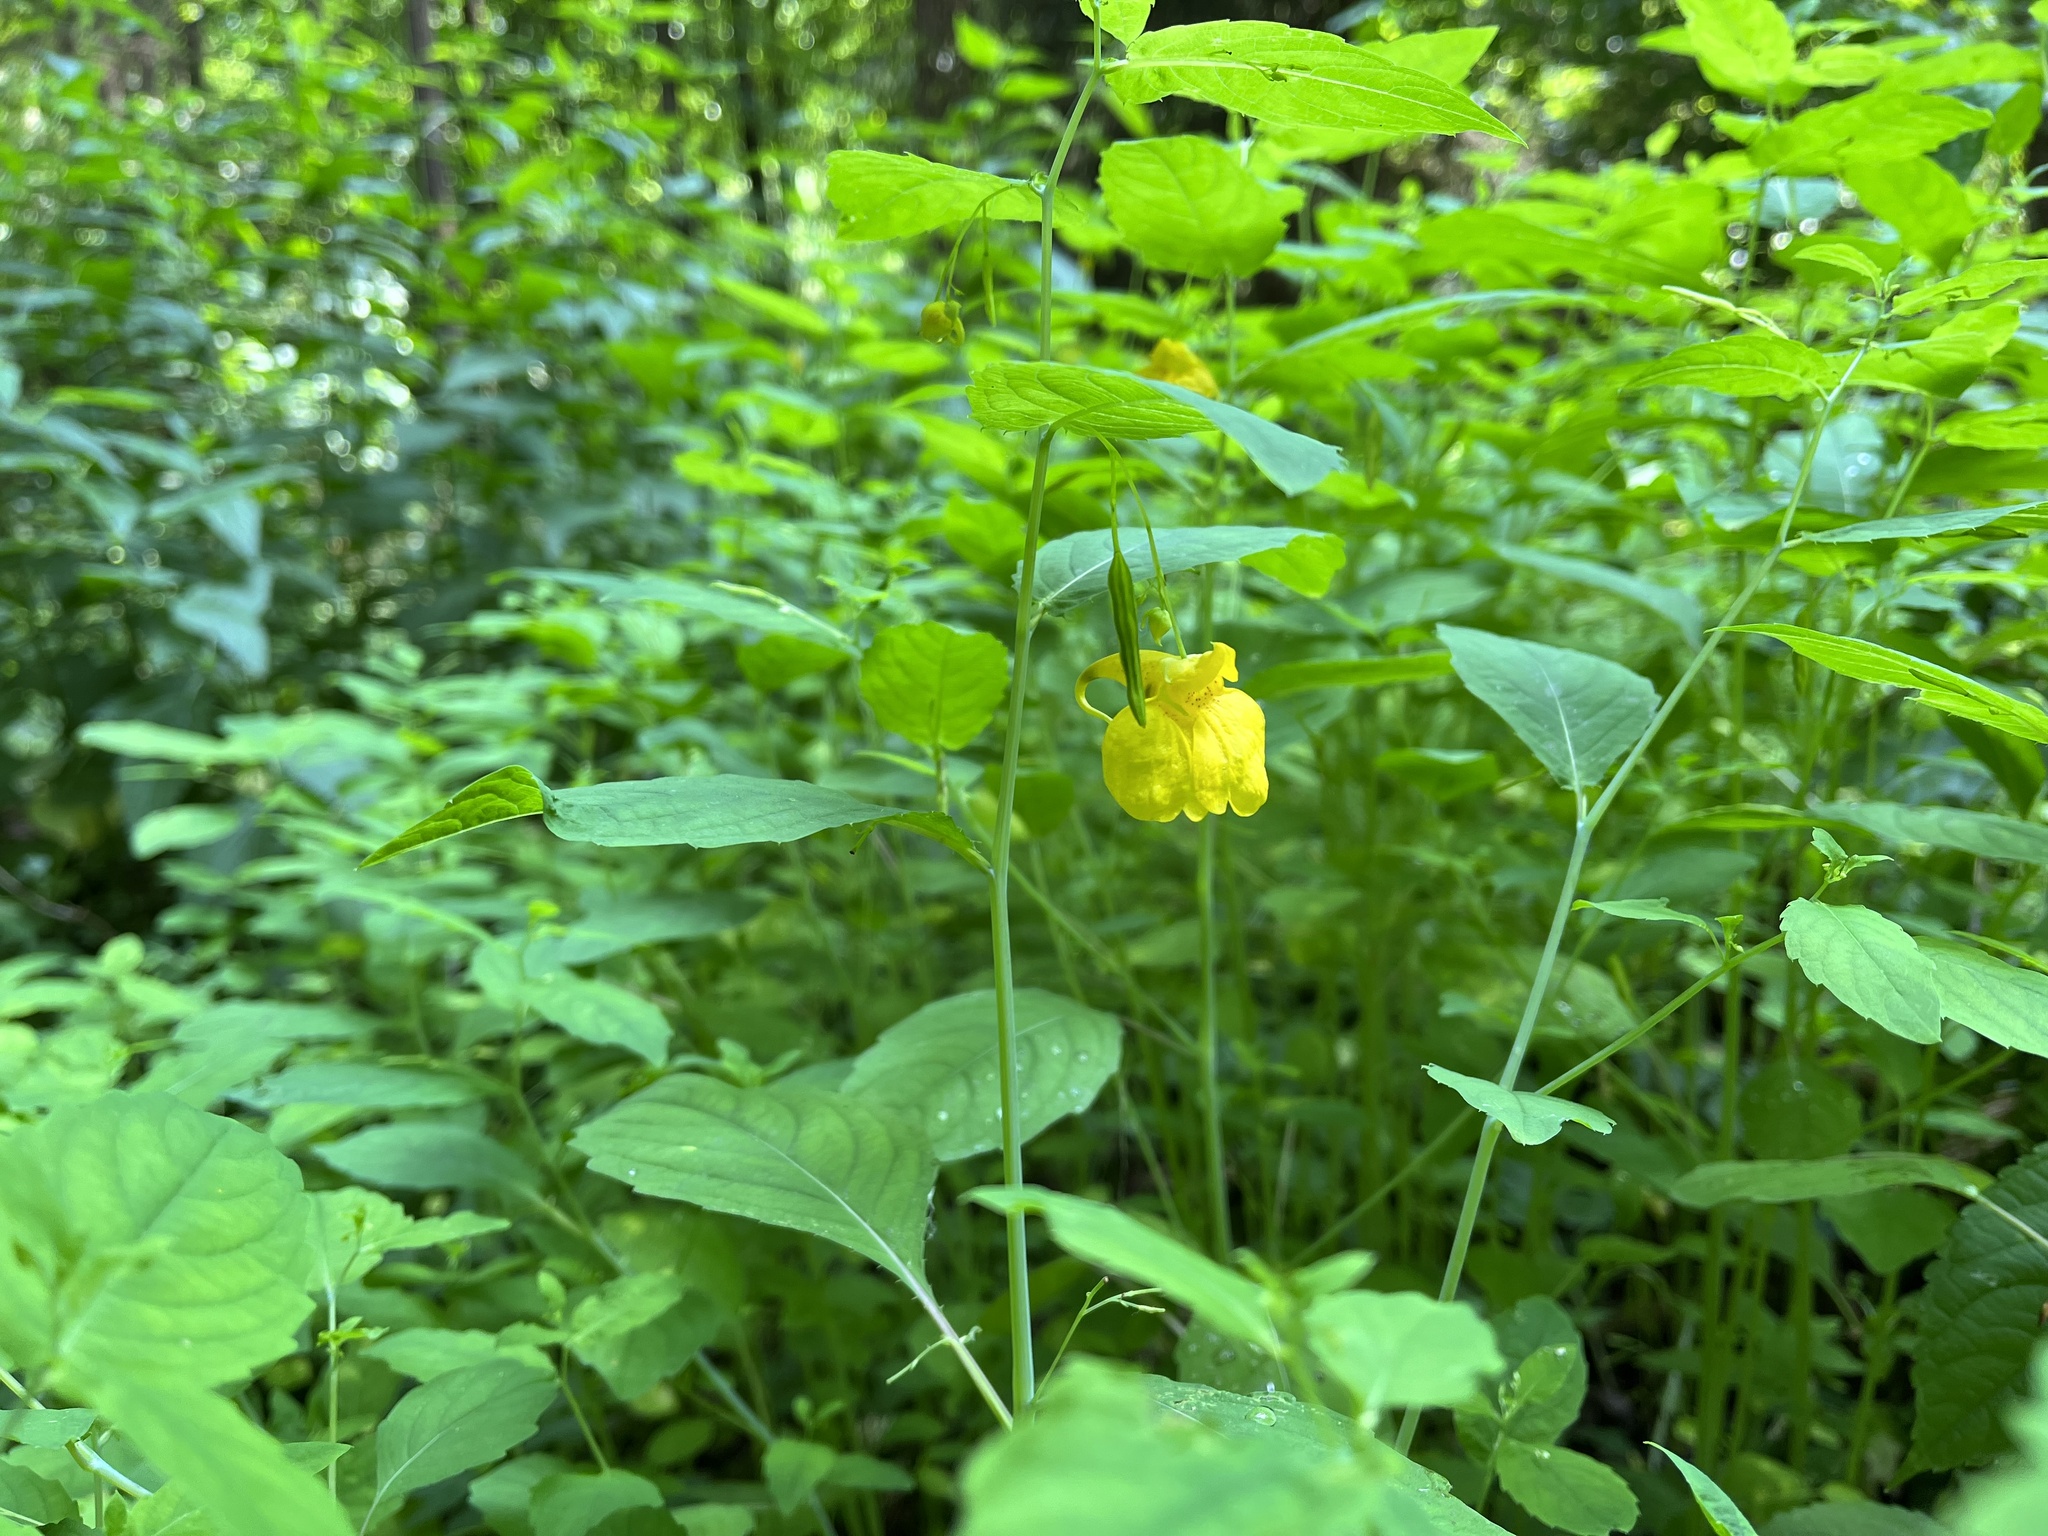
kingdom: Plantae
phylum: Tracheophyta
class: Magnoliopsida
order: Ericales
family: Balsaminaceae
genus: Impatiens
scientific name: Impatiens noli-tangere
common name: Touch-me-not balsam
